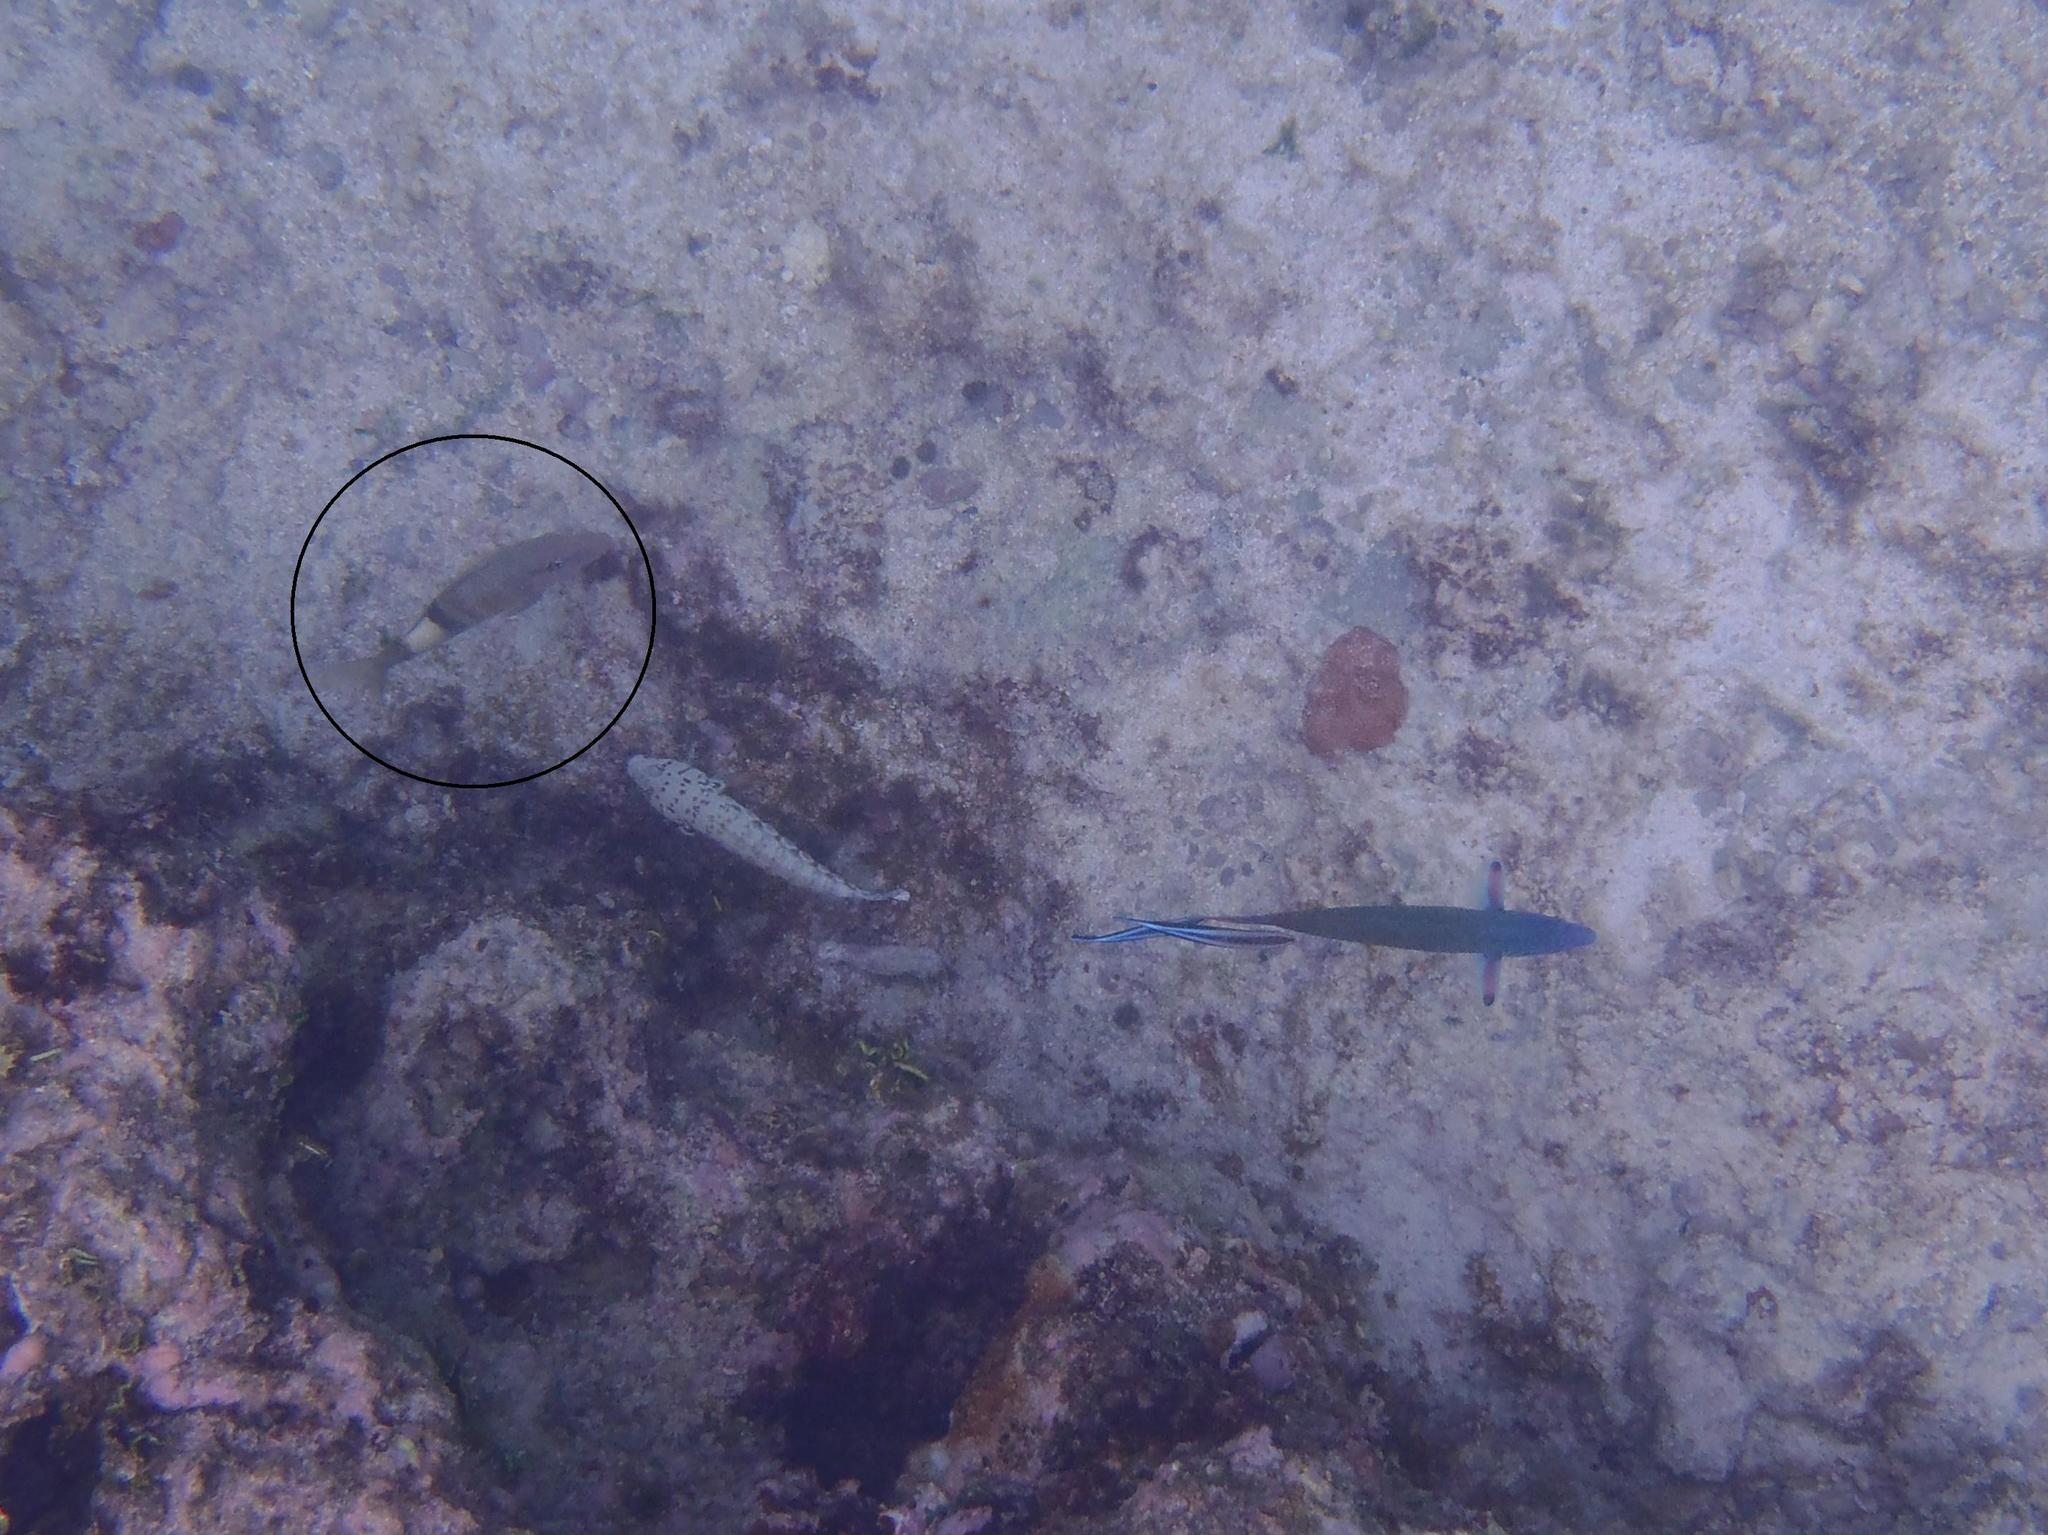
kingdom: Animalia
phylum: Chordata
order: Perciformes
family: Mullidae
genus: Parupeneus
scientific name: Parupeneus multifasciatus
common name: Manybar goatfish
